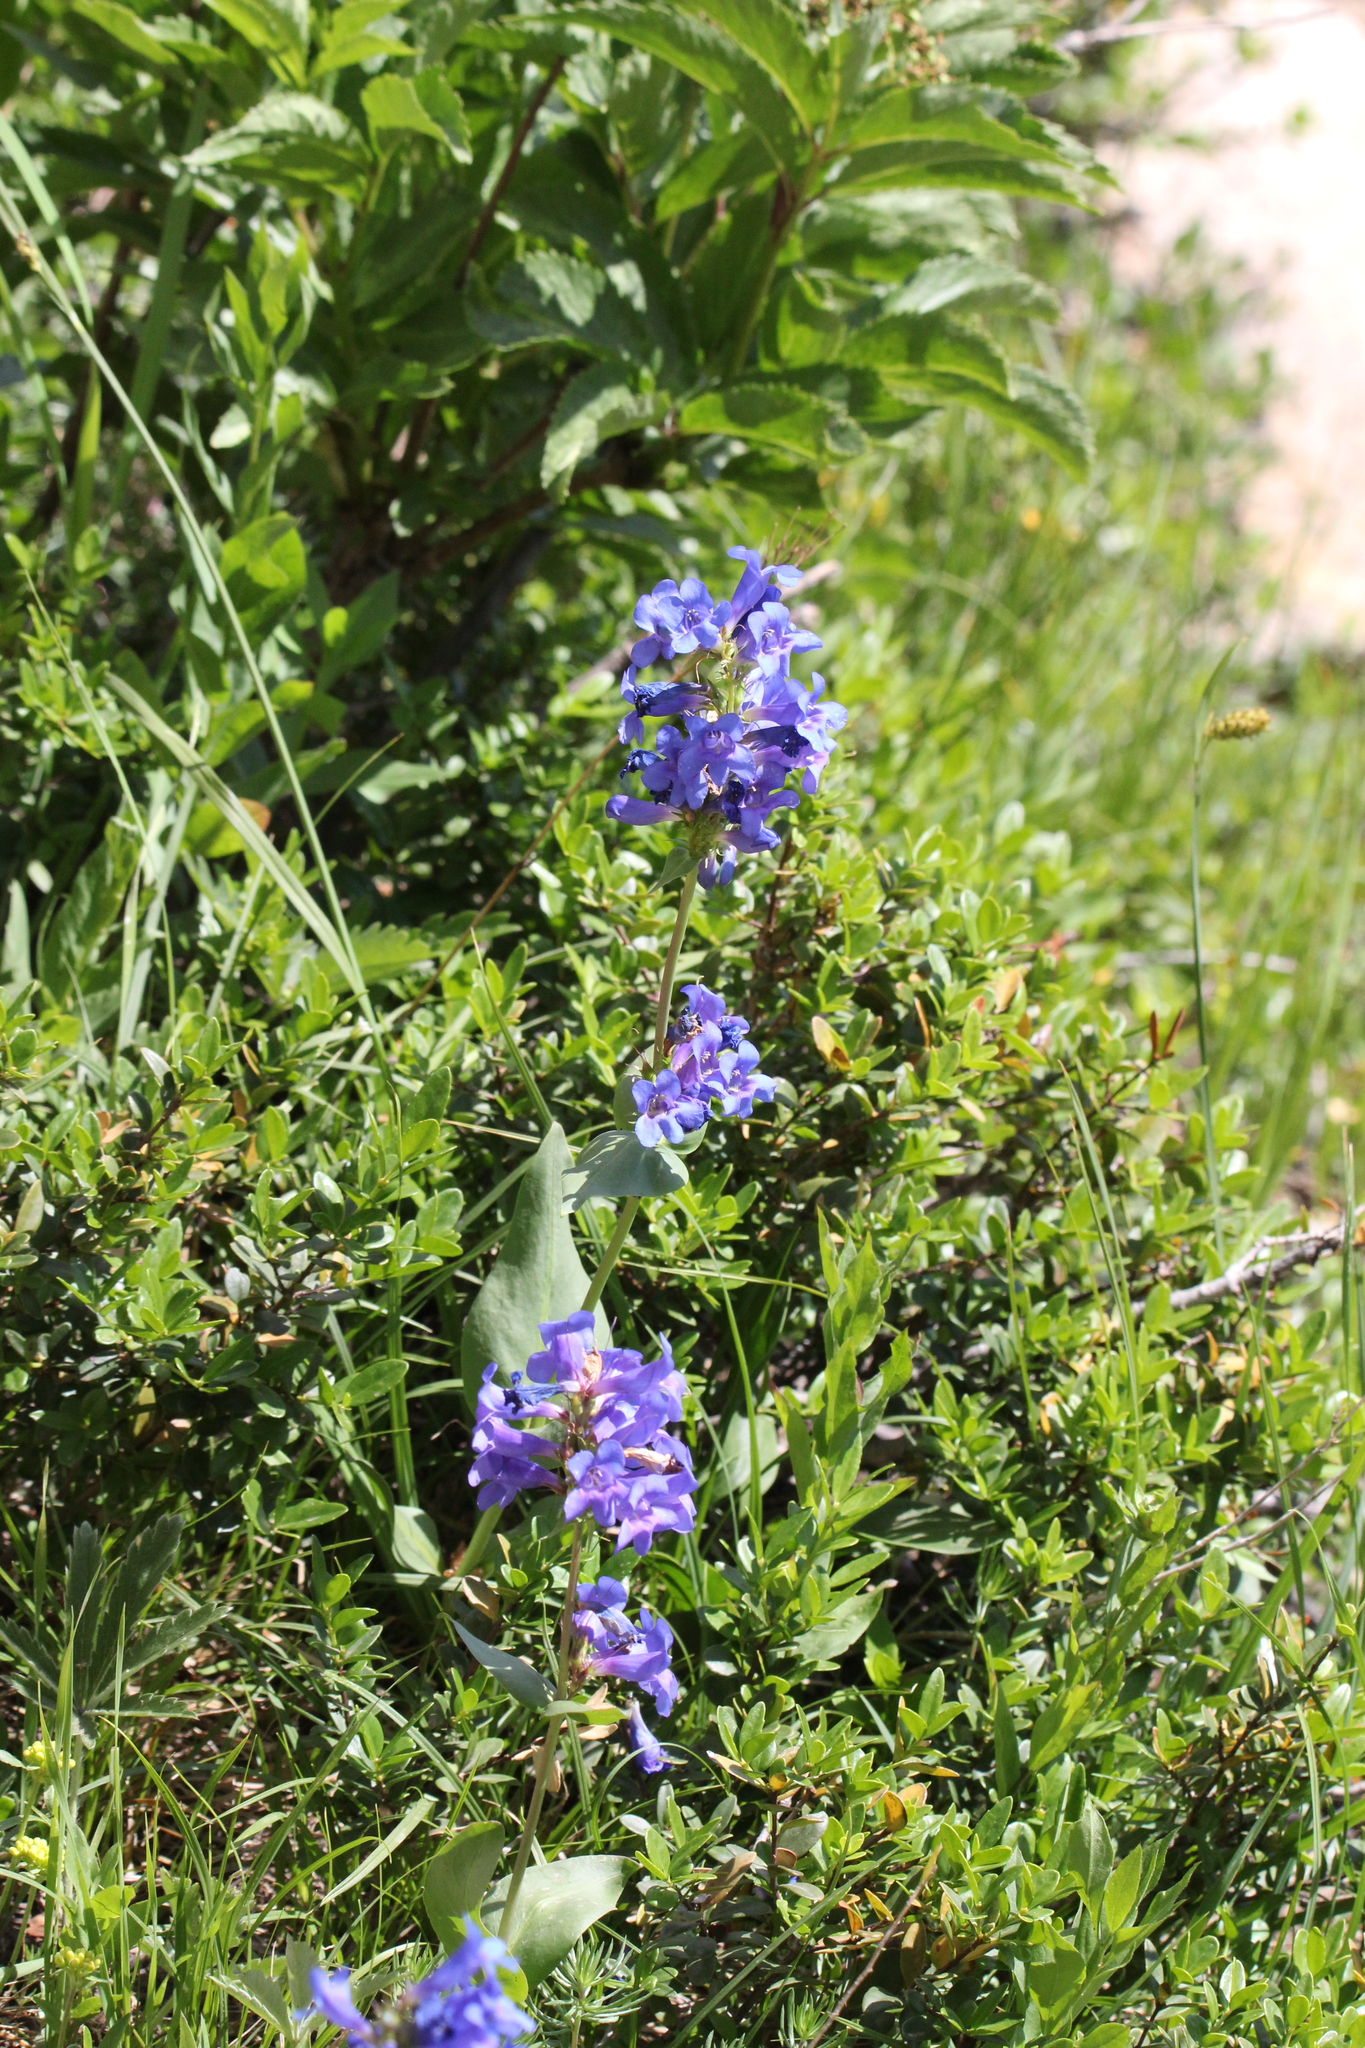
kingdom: Plantae
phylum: Tracheophyta
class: Magnoliopsida
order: Lamiales
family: Plantaginaceae
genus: Penstemon
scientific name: Penstemon cyananthus
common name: Wasatch penstemon
